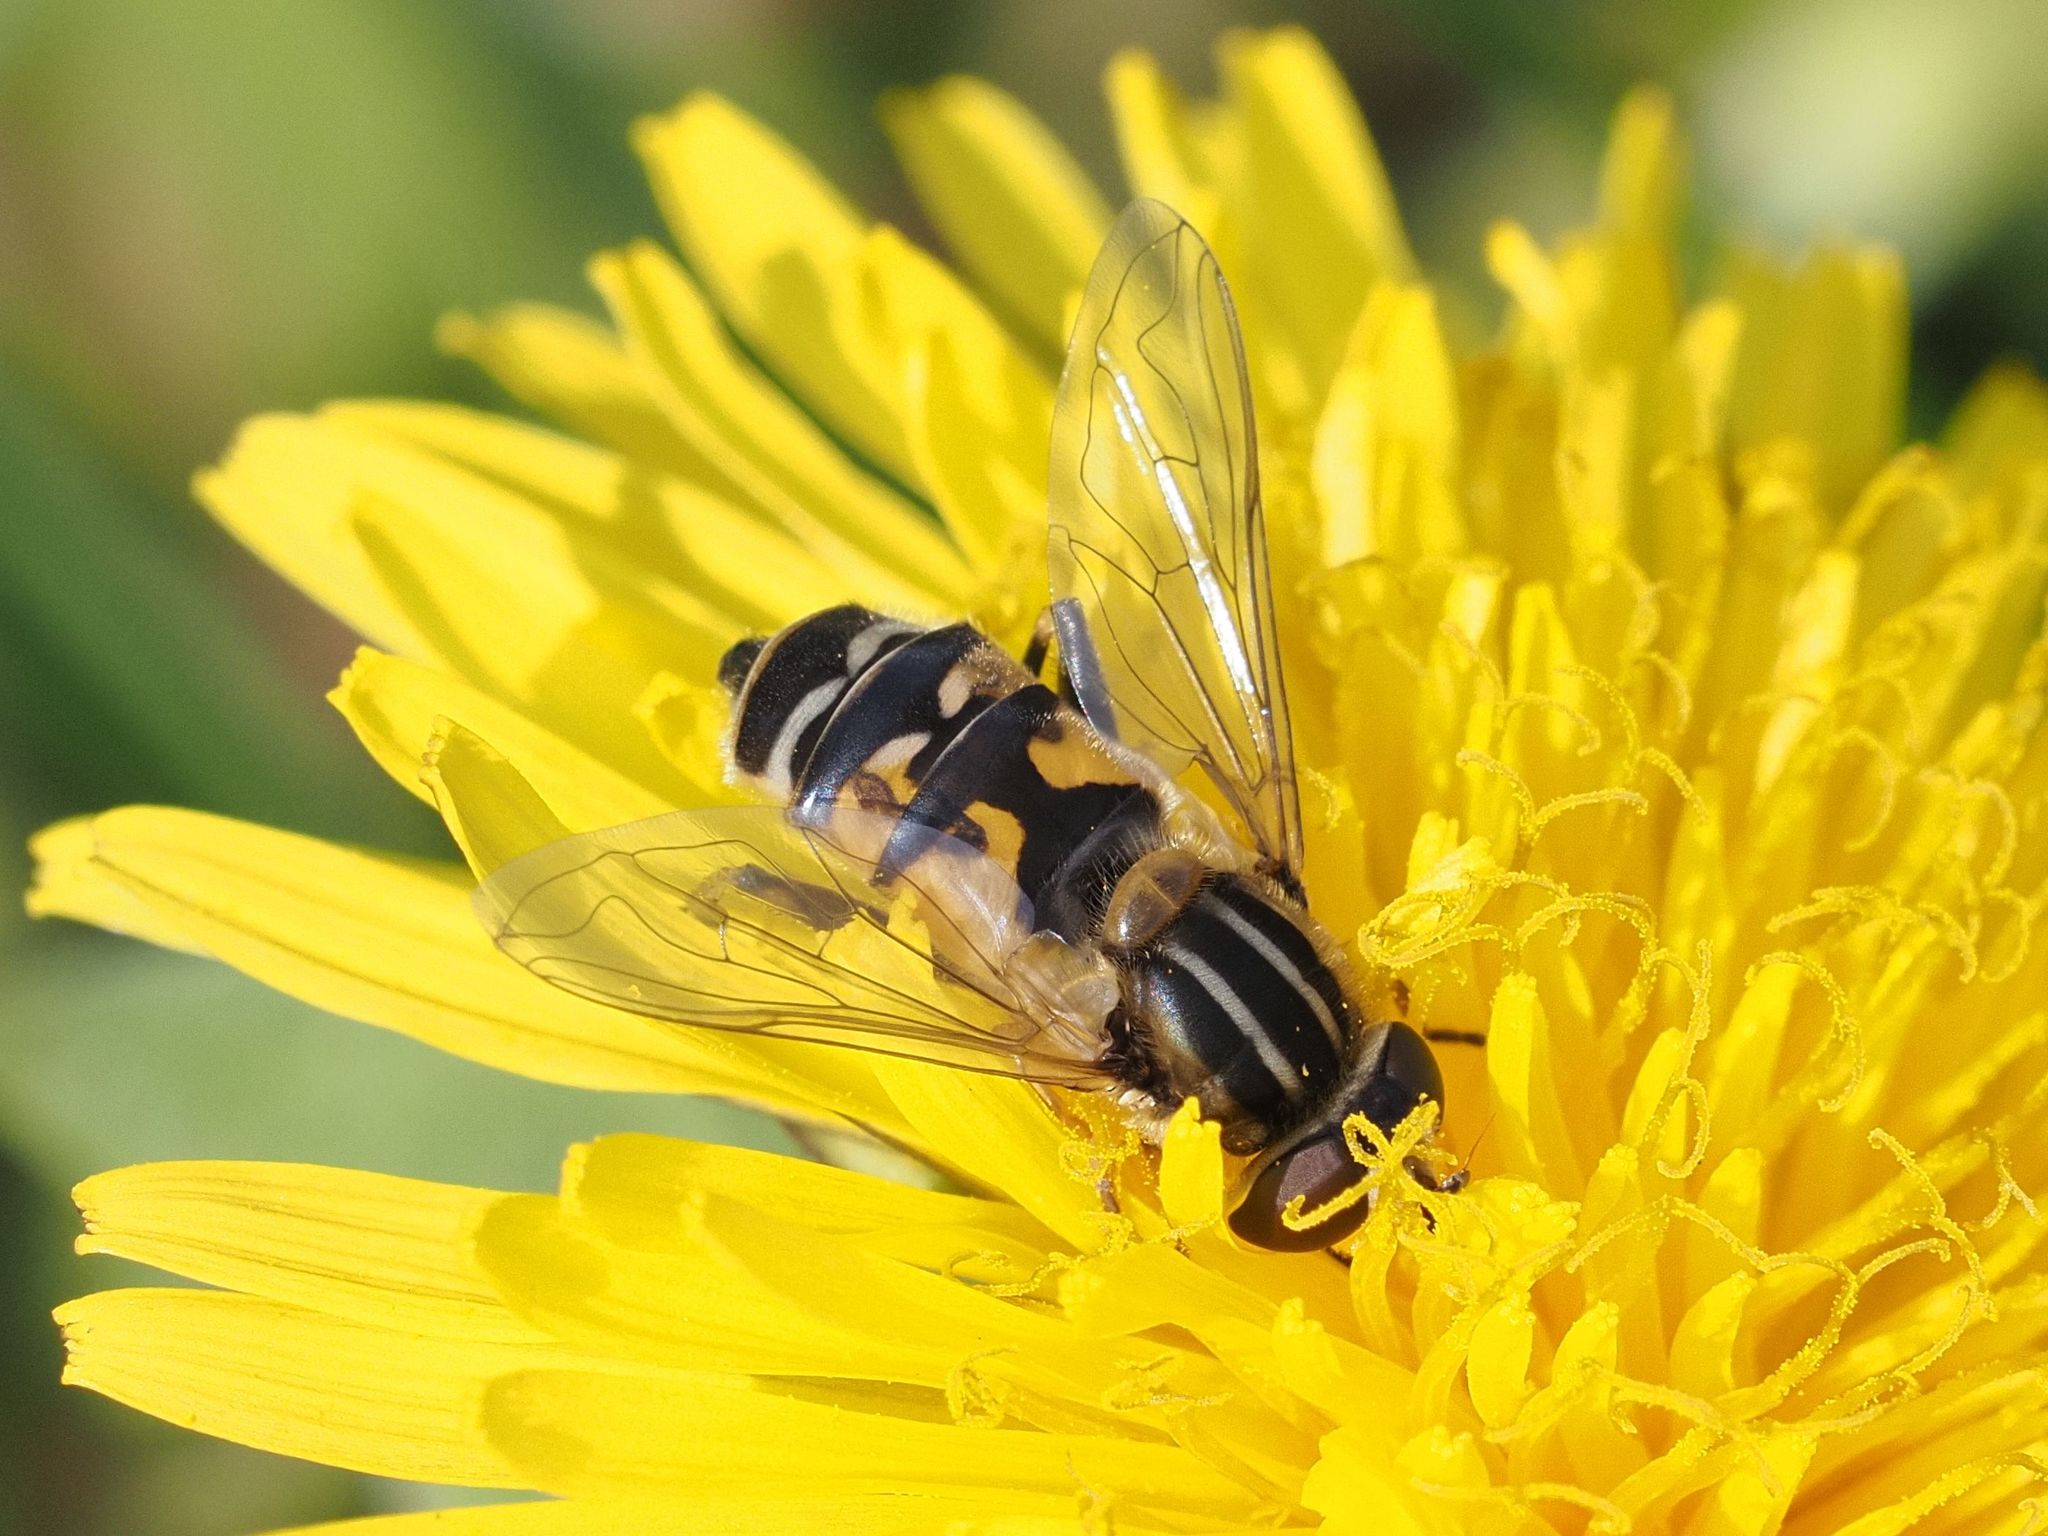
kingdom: Animalia
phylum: Arthropoda
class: Insecta
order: Diptera
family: Syrphidae
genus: Helophilus
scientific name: Helophilus trivittatus
